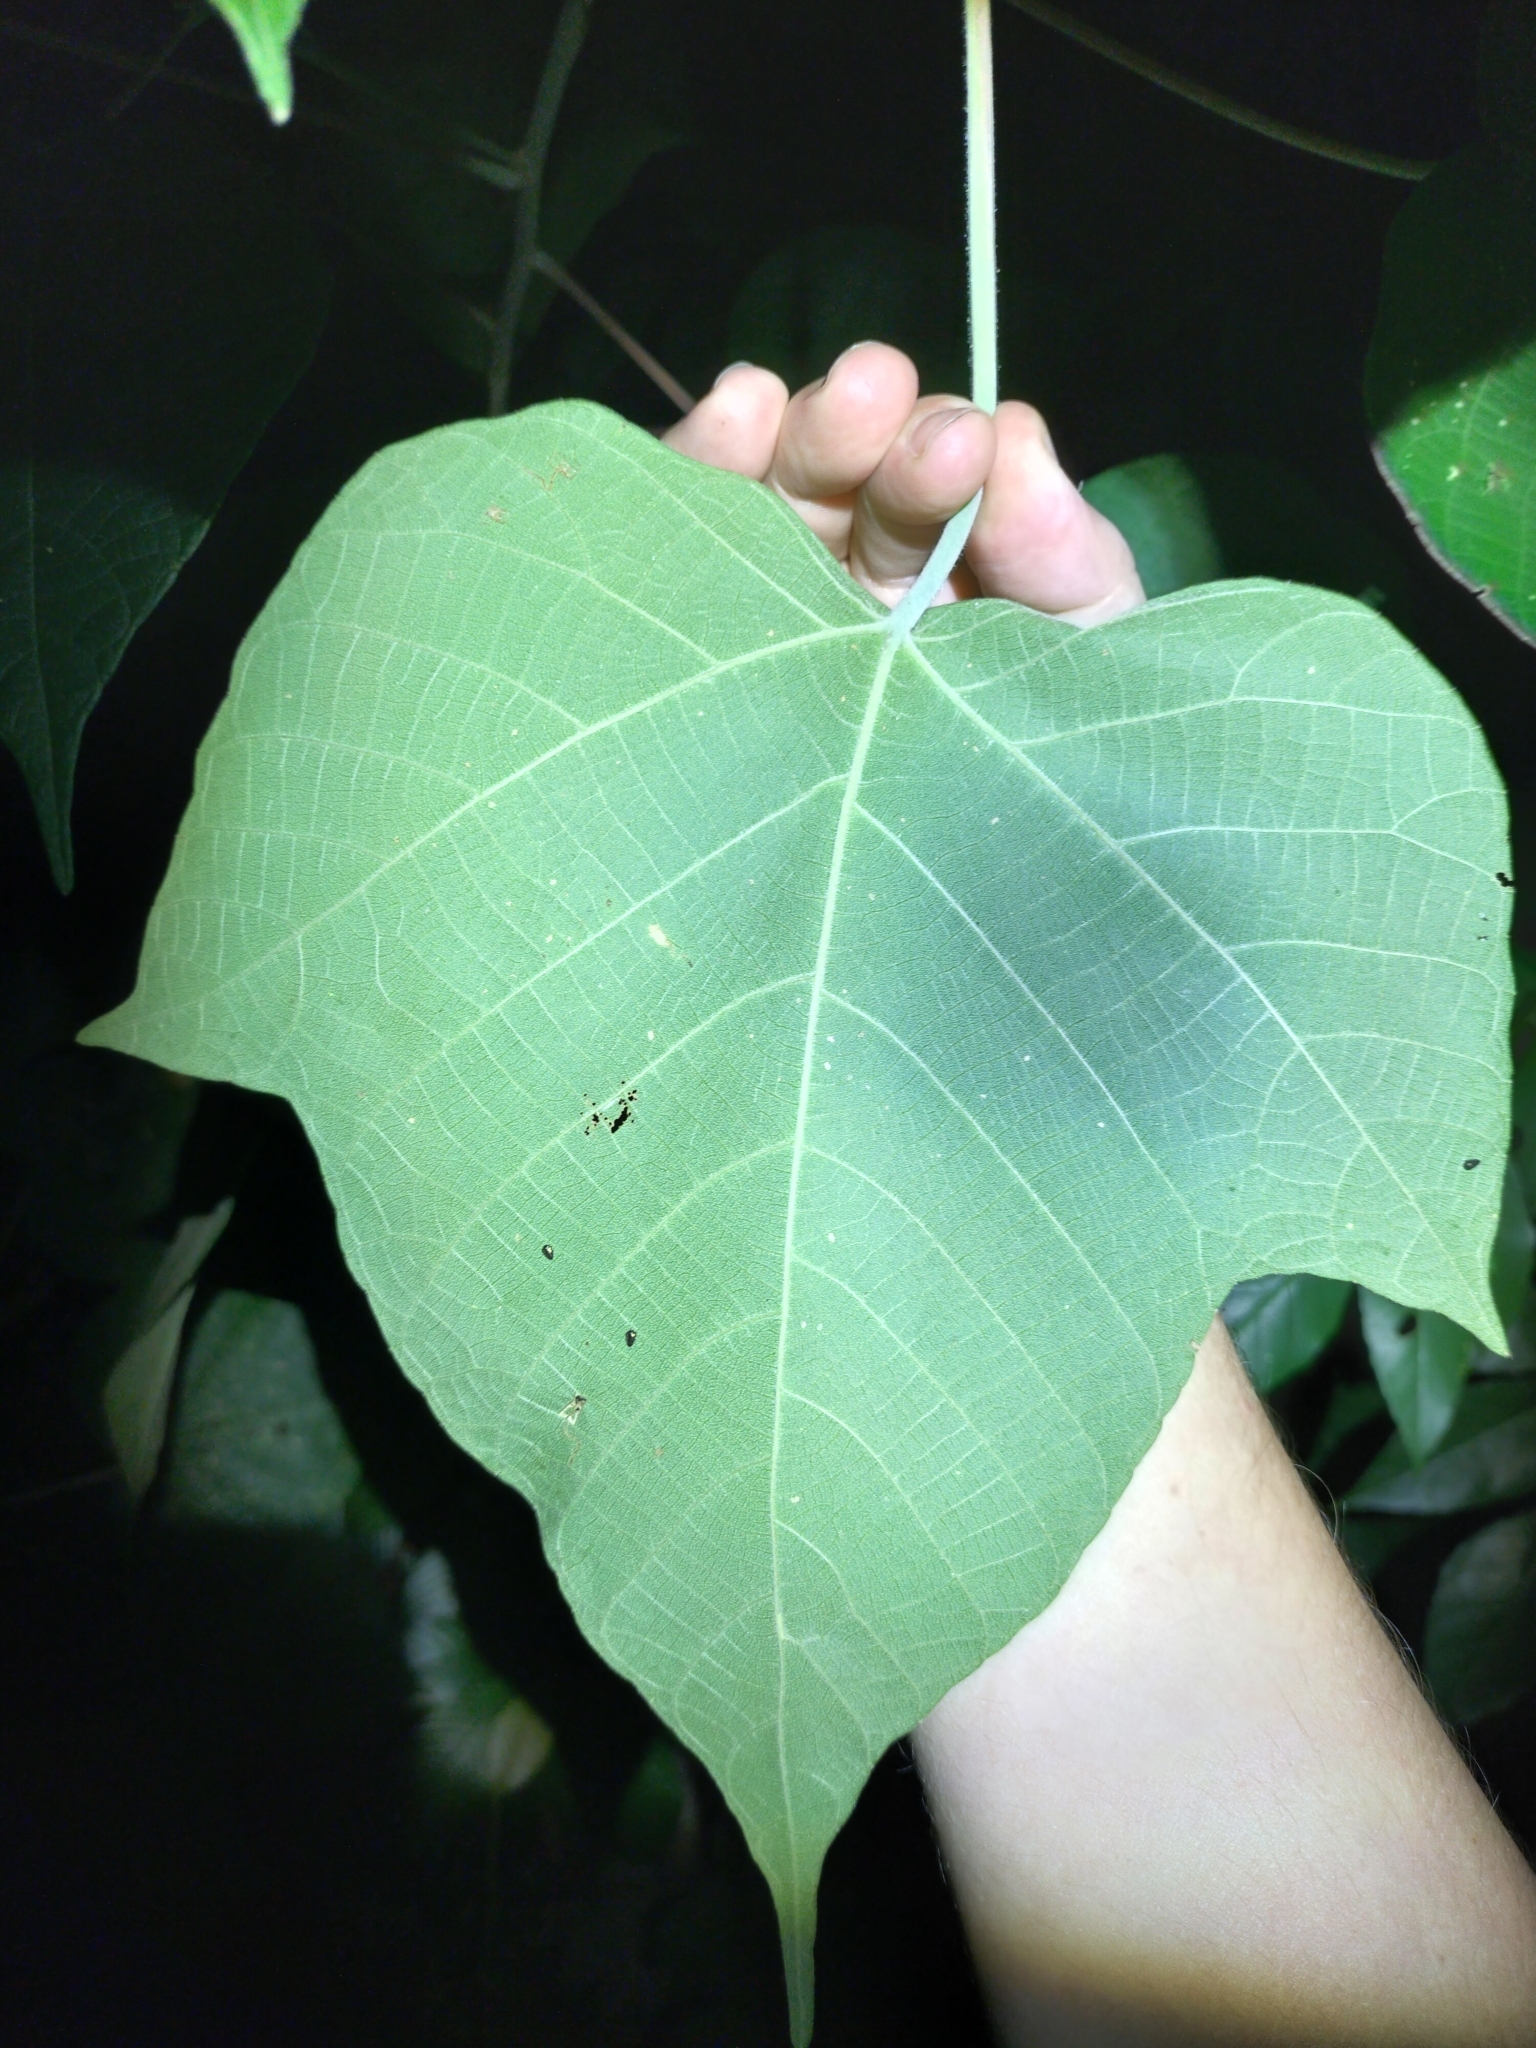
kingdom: Plantae
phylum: Tracheophyta
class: Magnoliopsida
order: Malpighiales
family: Euphorbiaceae
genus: Macaranga
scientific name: Macaranga involucrata
